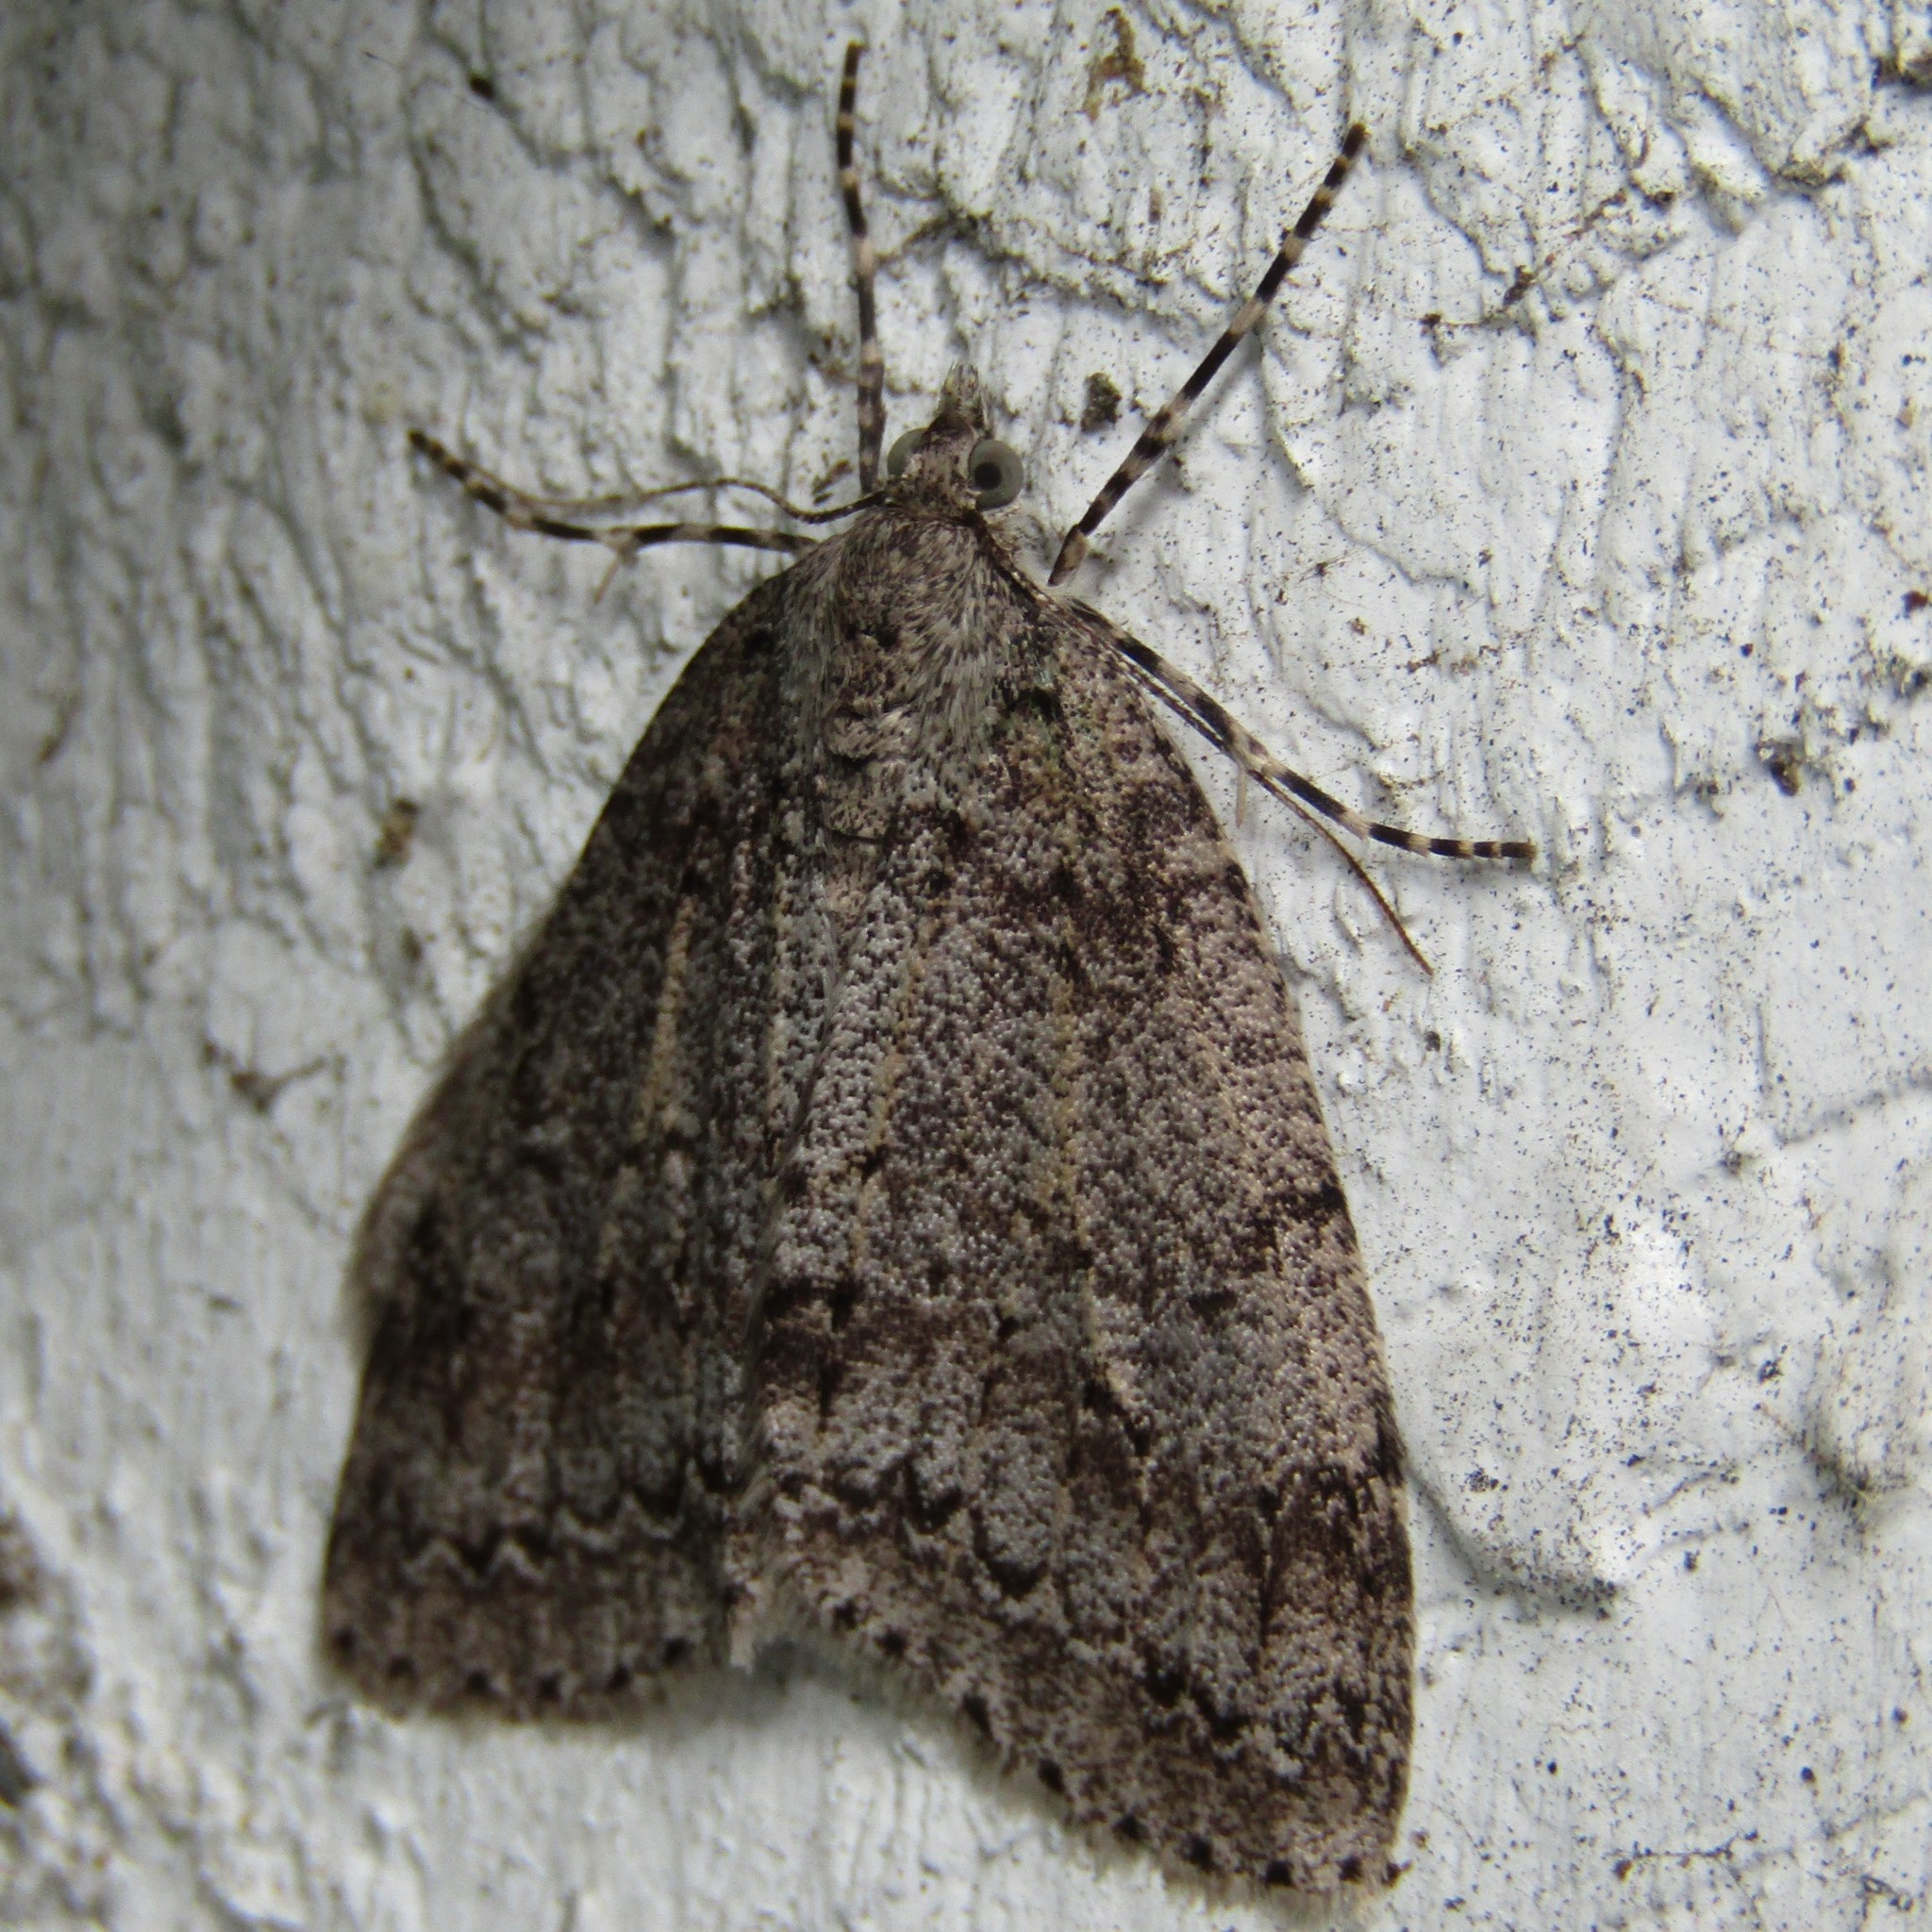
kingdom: Animalia
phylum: Arthropoda
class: Insecta
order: Lepidoptera
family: Geometridae
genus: Pseudocoremia
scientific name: Pseudocoremia fenerata
